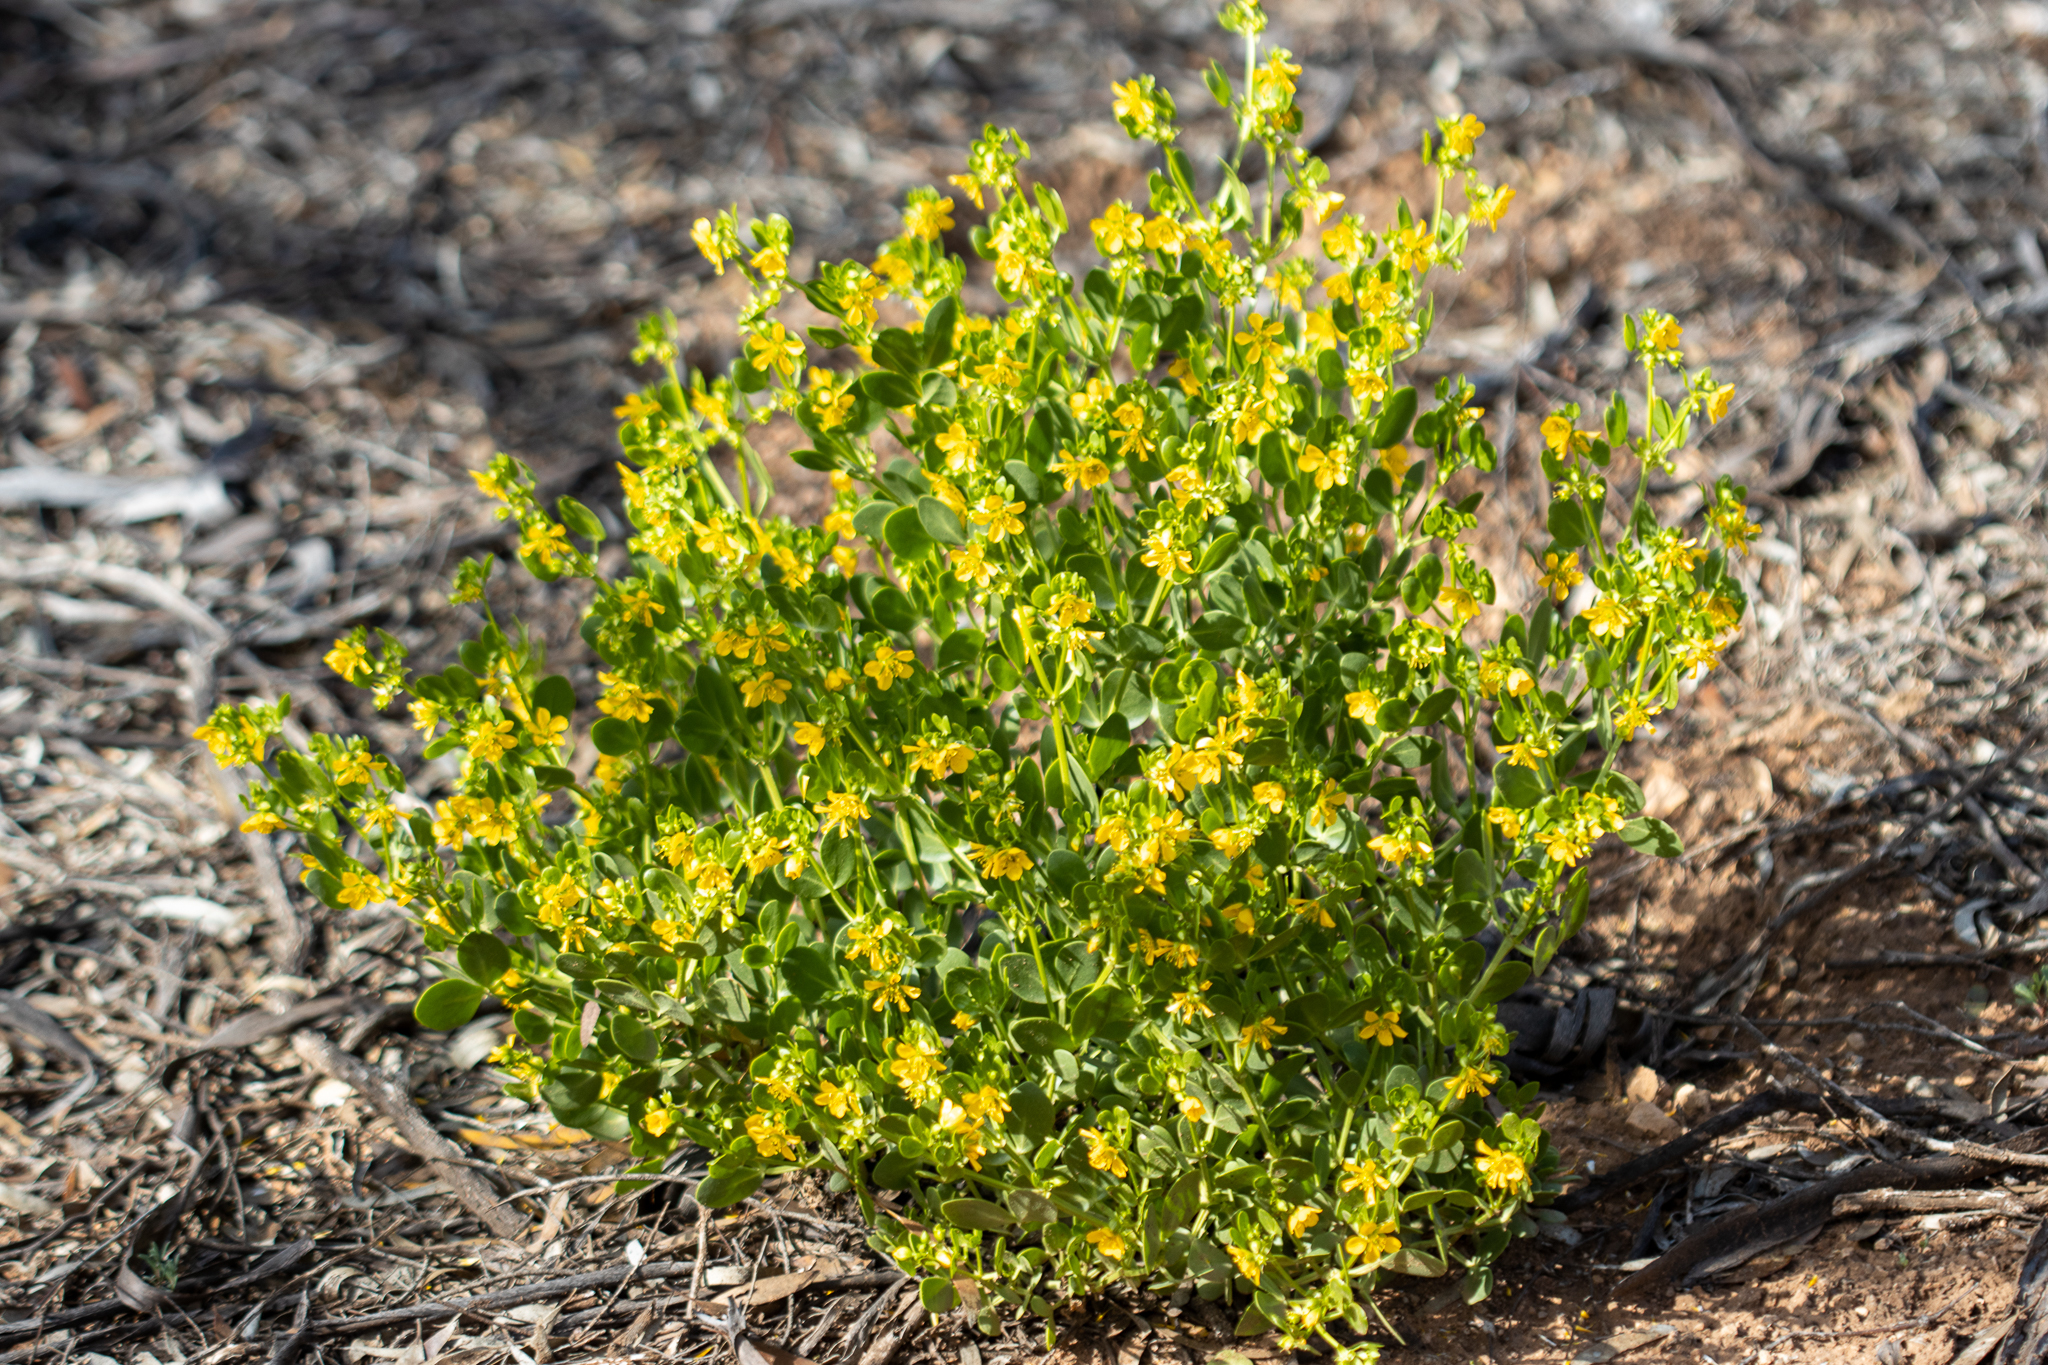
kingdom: Plantae
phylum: Tracheophyta
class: Magnoliopsida
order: Zygophyllales
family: Zygophyllaceae
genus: Roepera
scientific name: Roepera apiculata
